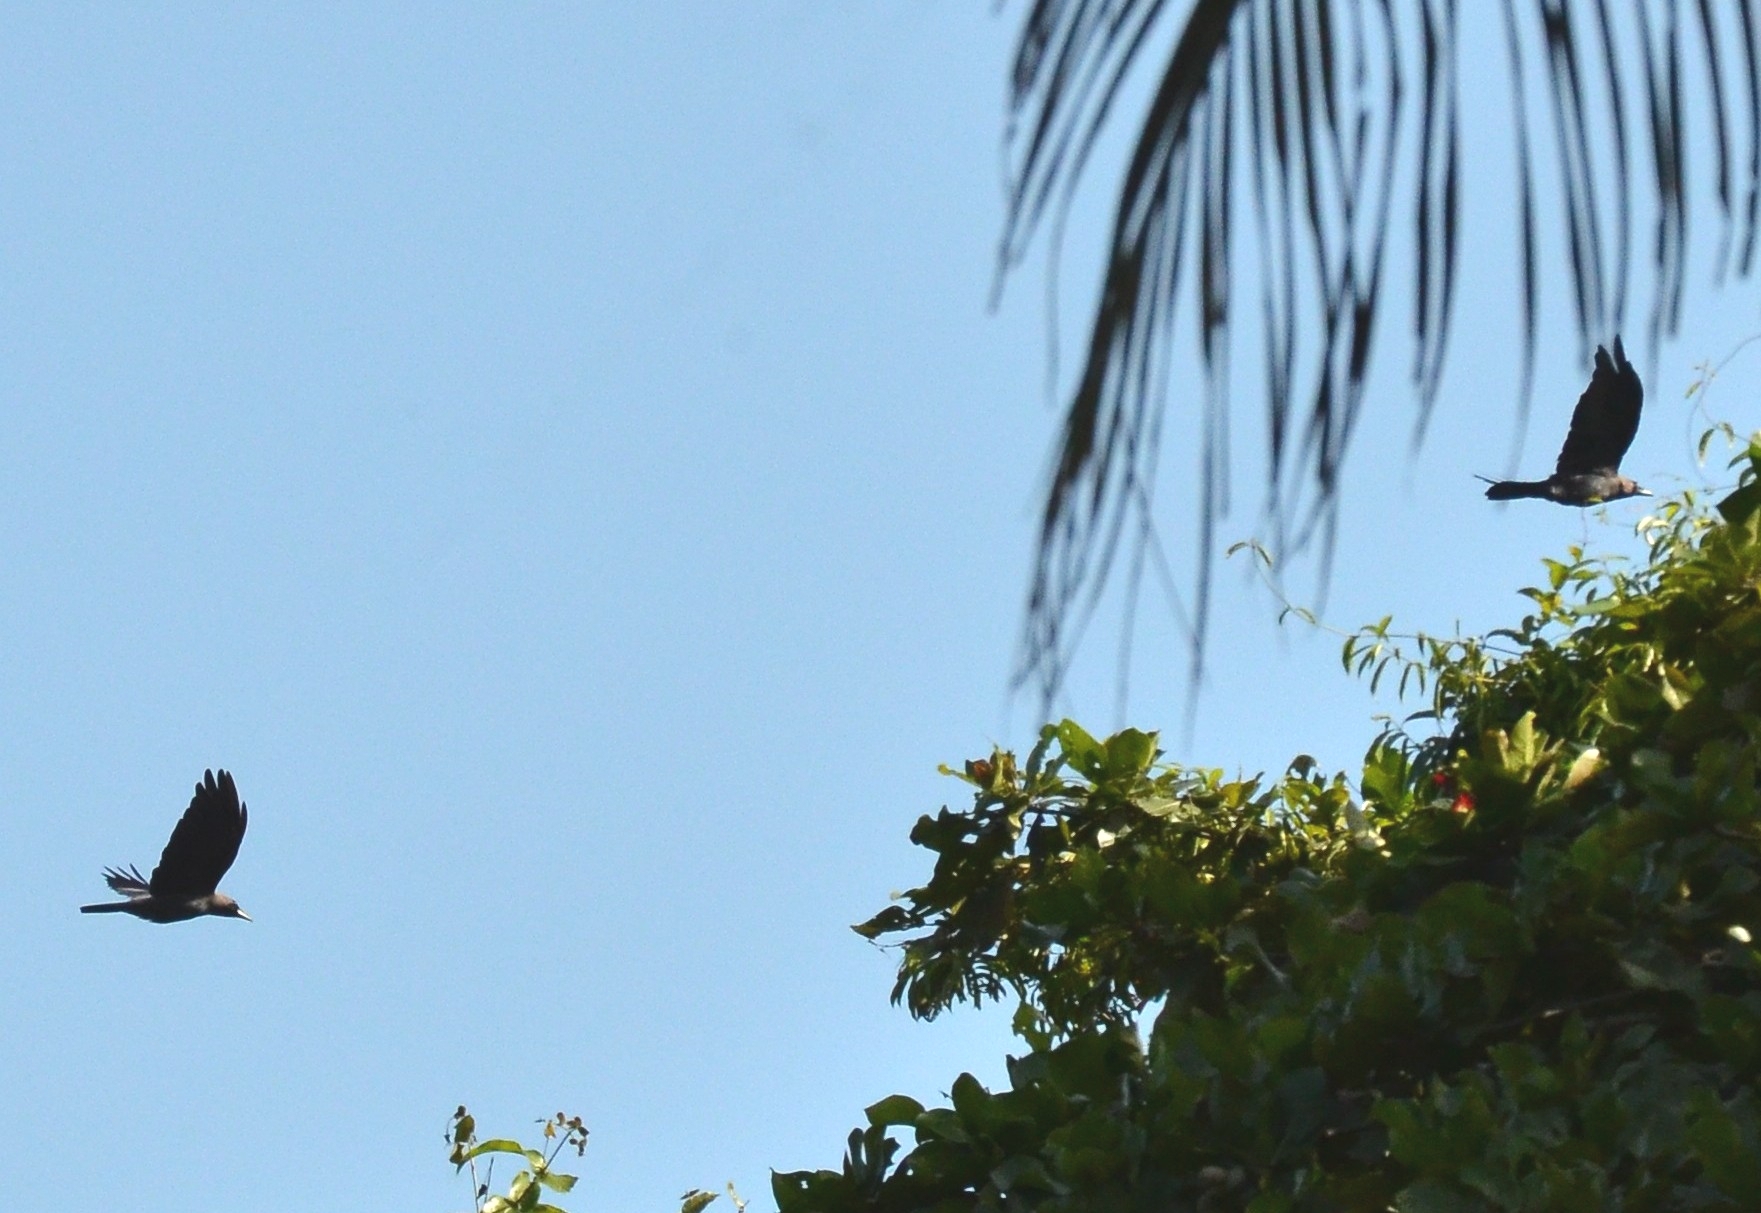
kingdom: Animalia
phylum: Chordata
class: Aves
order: Passeriformes
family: Corvidae
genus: Corvus
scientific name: Corvus splendens
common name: House crow
